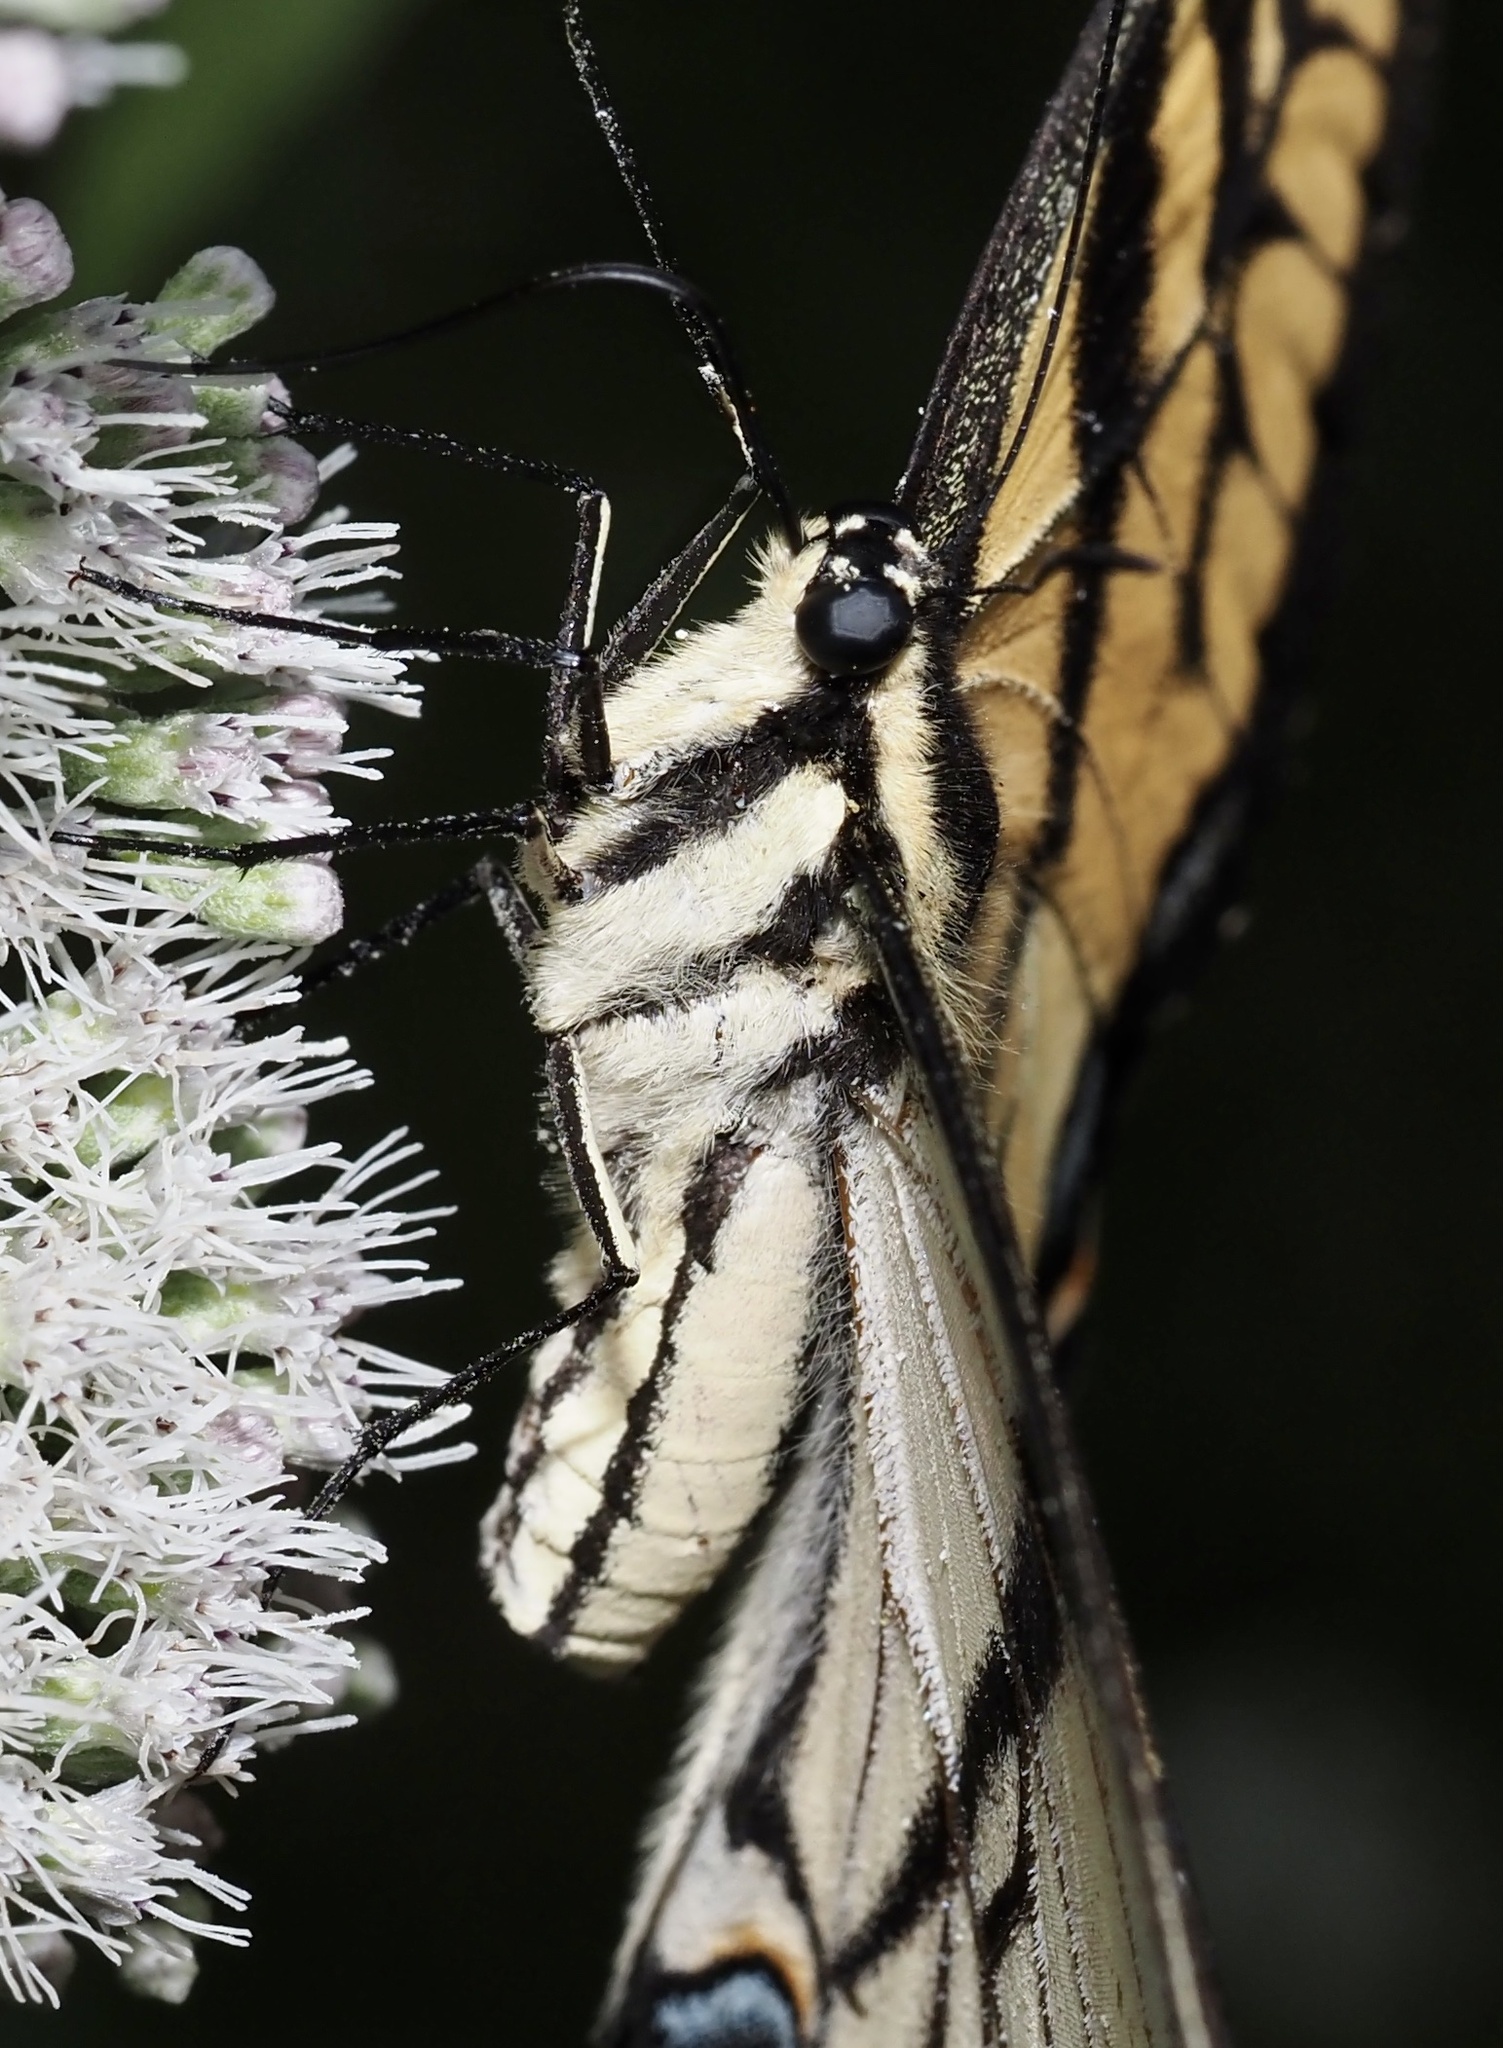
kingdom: Animalia
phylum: Arthropoda
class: Insecta
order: Lepidoptera
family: Papilionidae
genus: Papilio
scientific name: Papilio glaucus
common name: Tiger swallowtail
